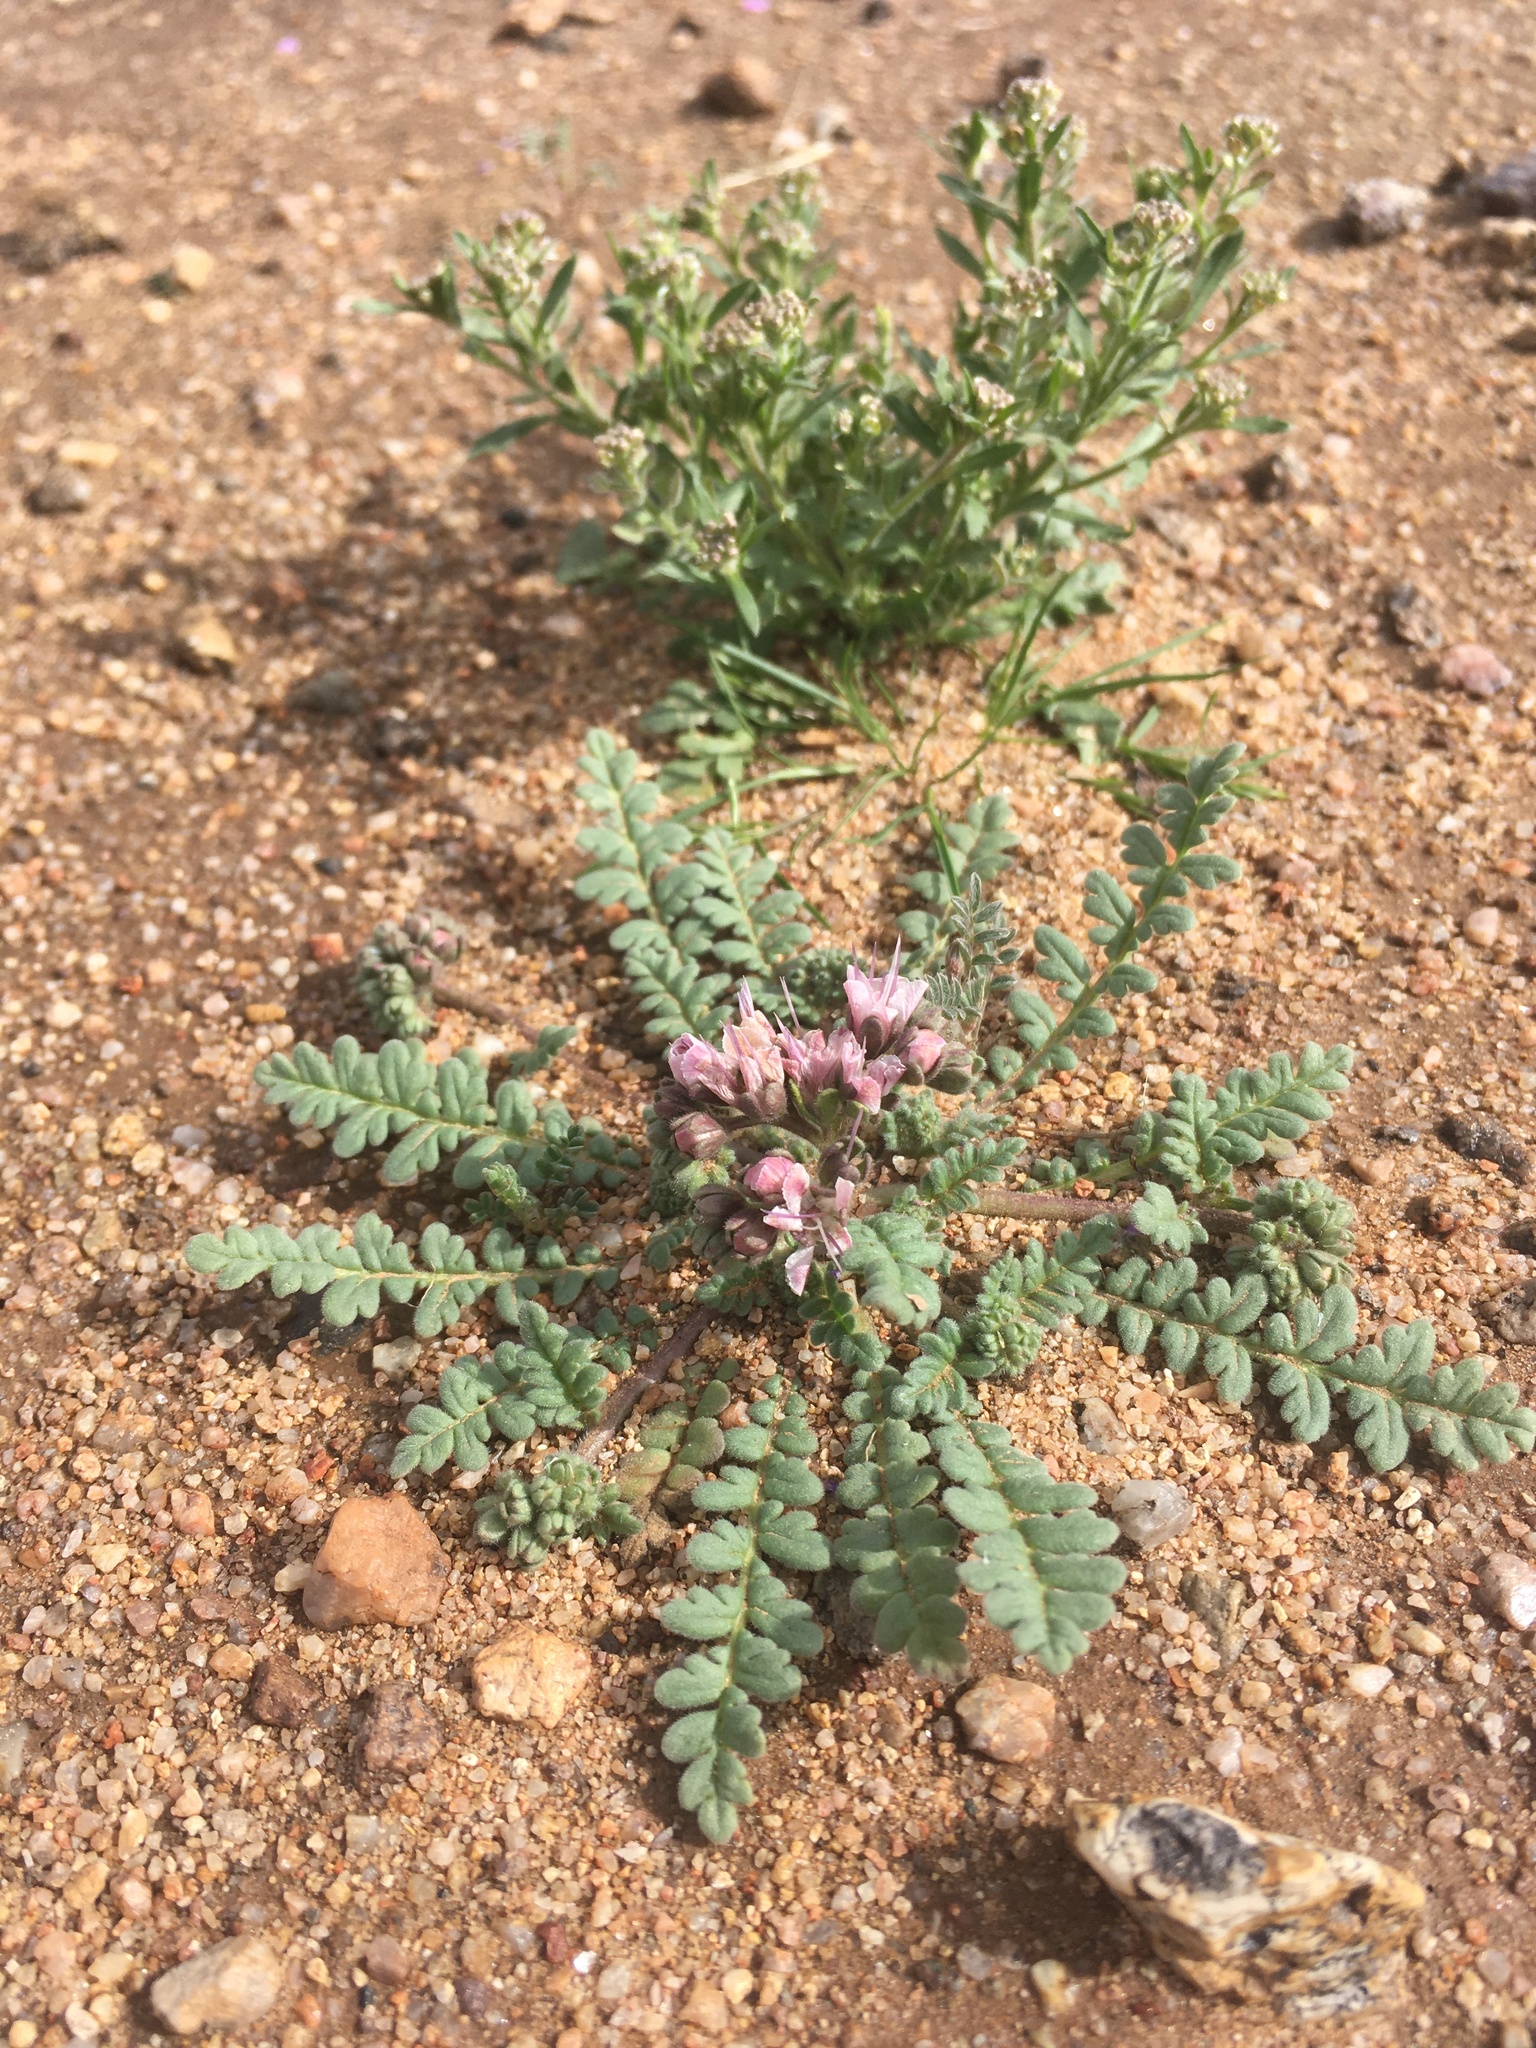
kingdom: Plantae
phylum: Tracheophyta
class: Magnoliopsida
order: Boraginales
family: Hydrophyllaceae
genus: Phacelia
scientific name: Phacelia arizonica
